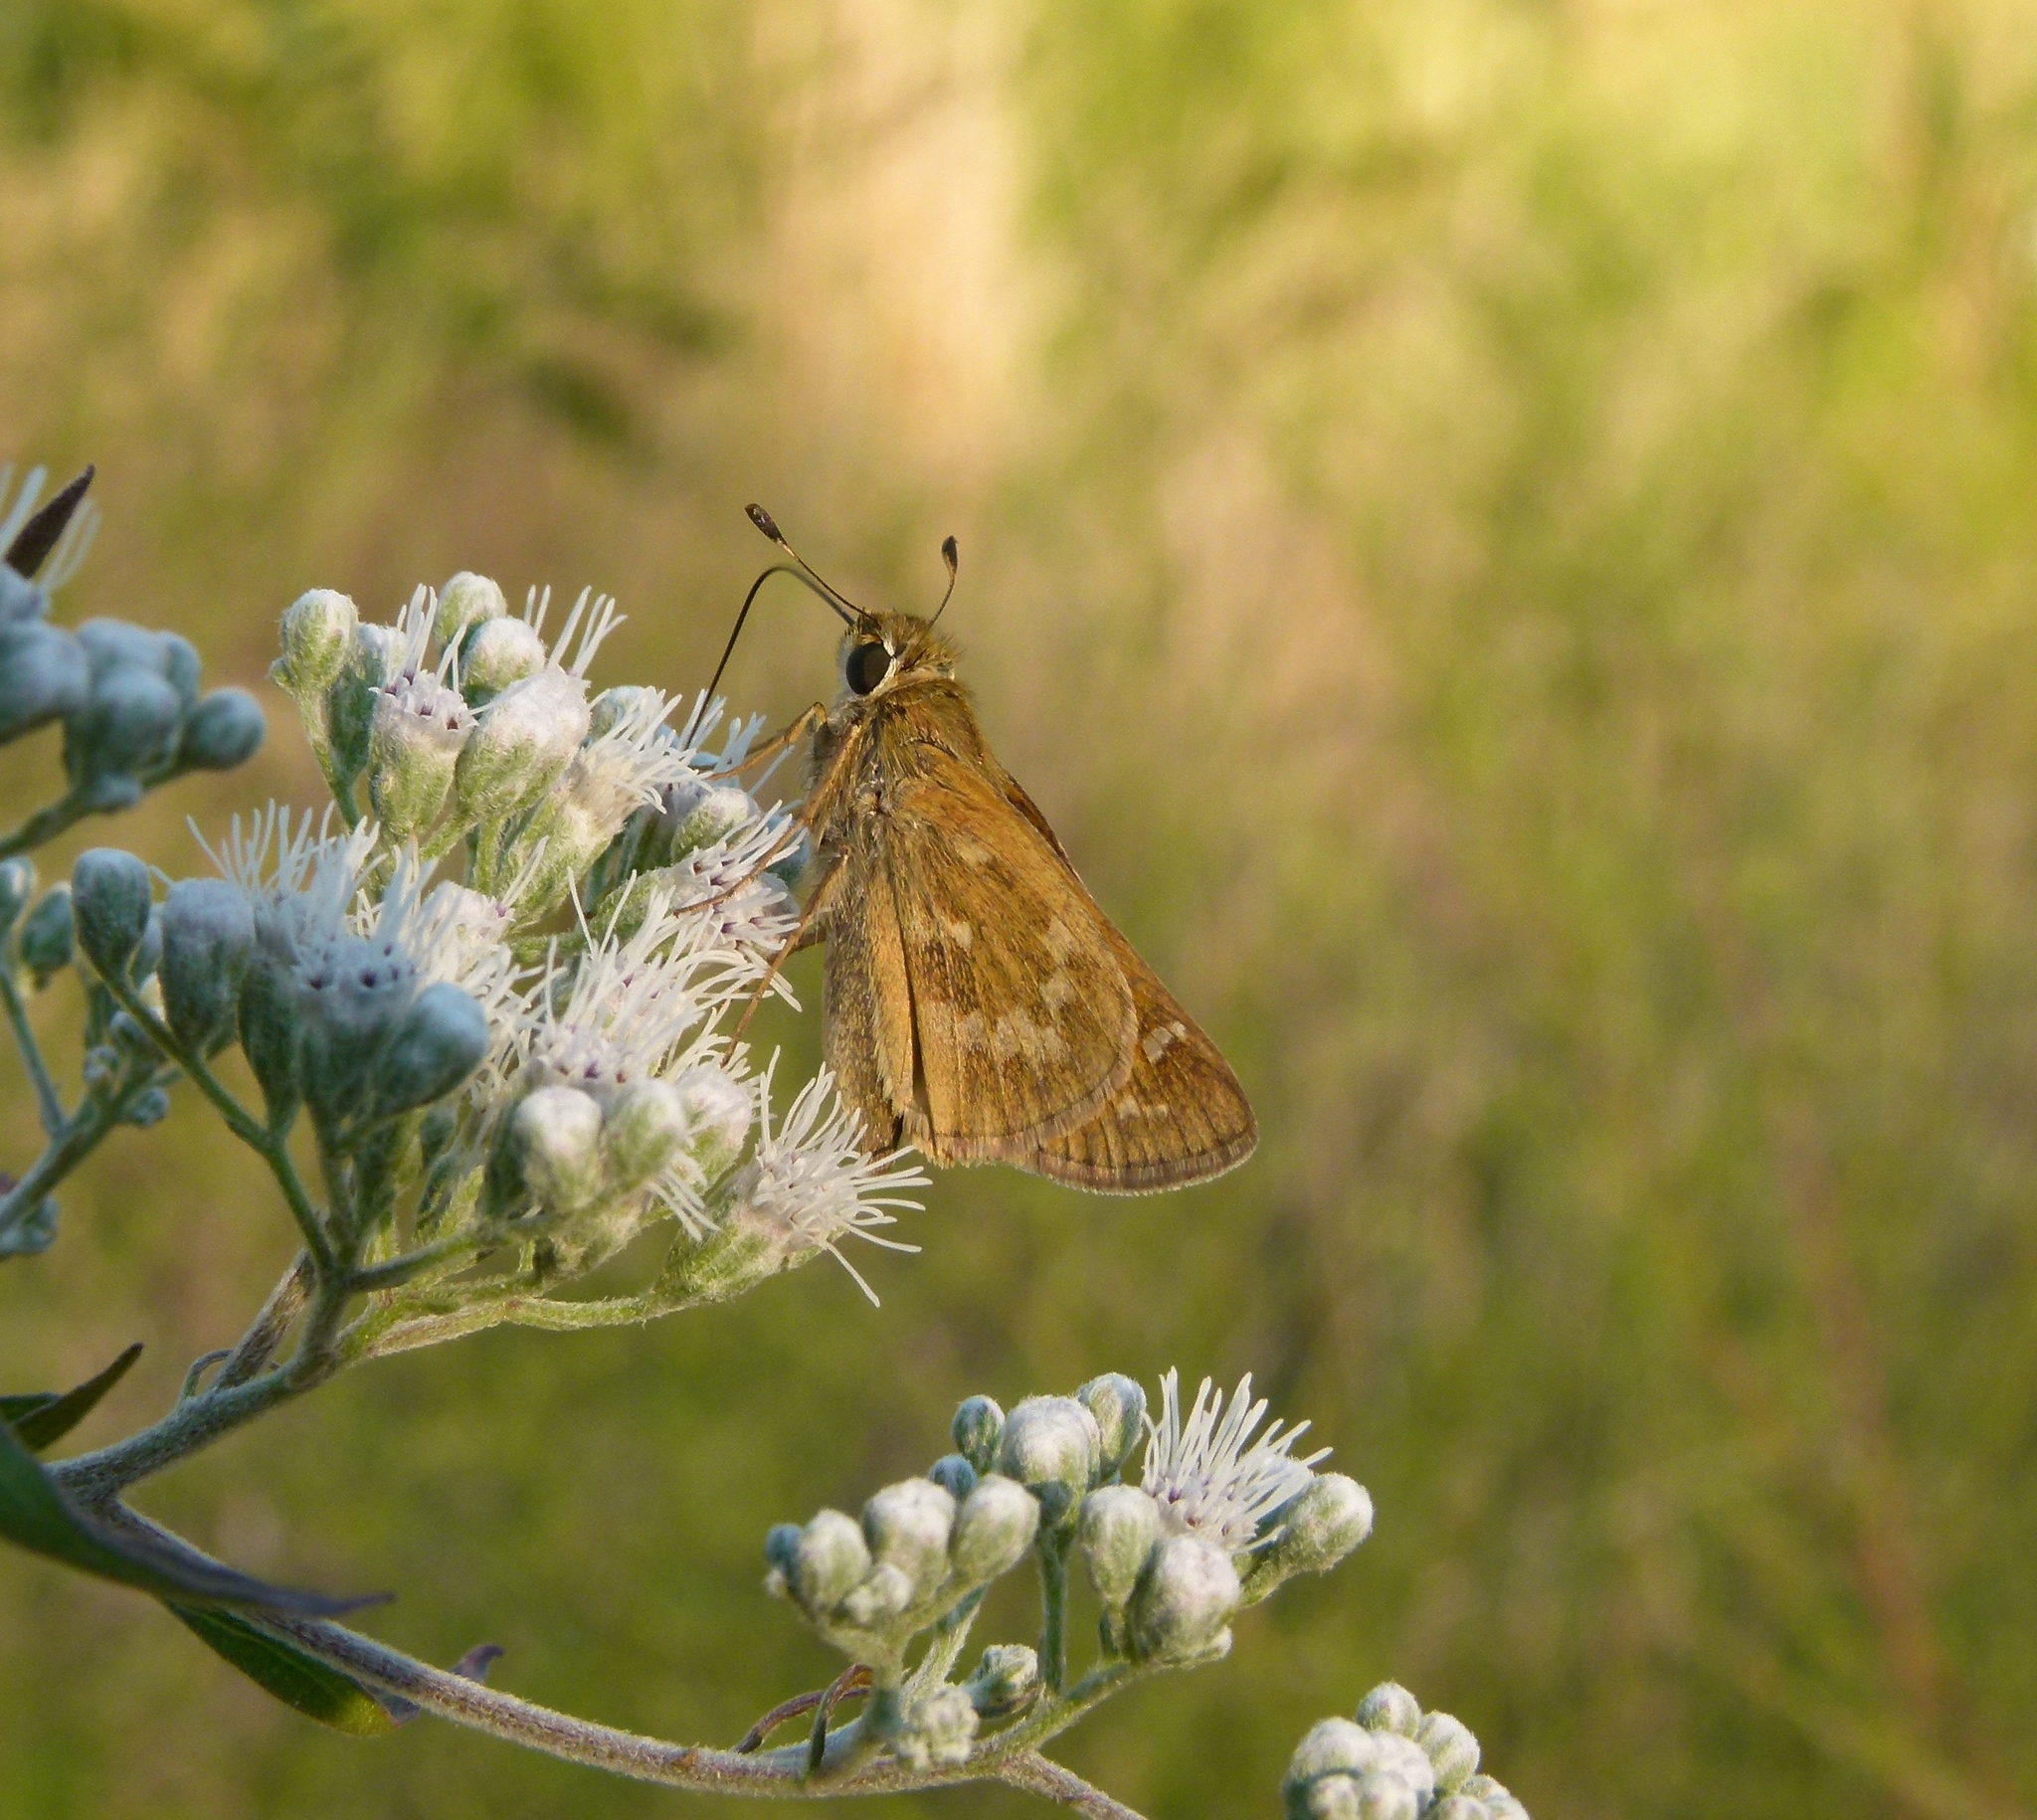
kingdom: Animalia
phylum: Arthropoda
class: Insecta
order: Lepidoptera
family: Hesperiidae
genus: Atalopedes
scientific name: Atalopedes
